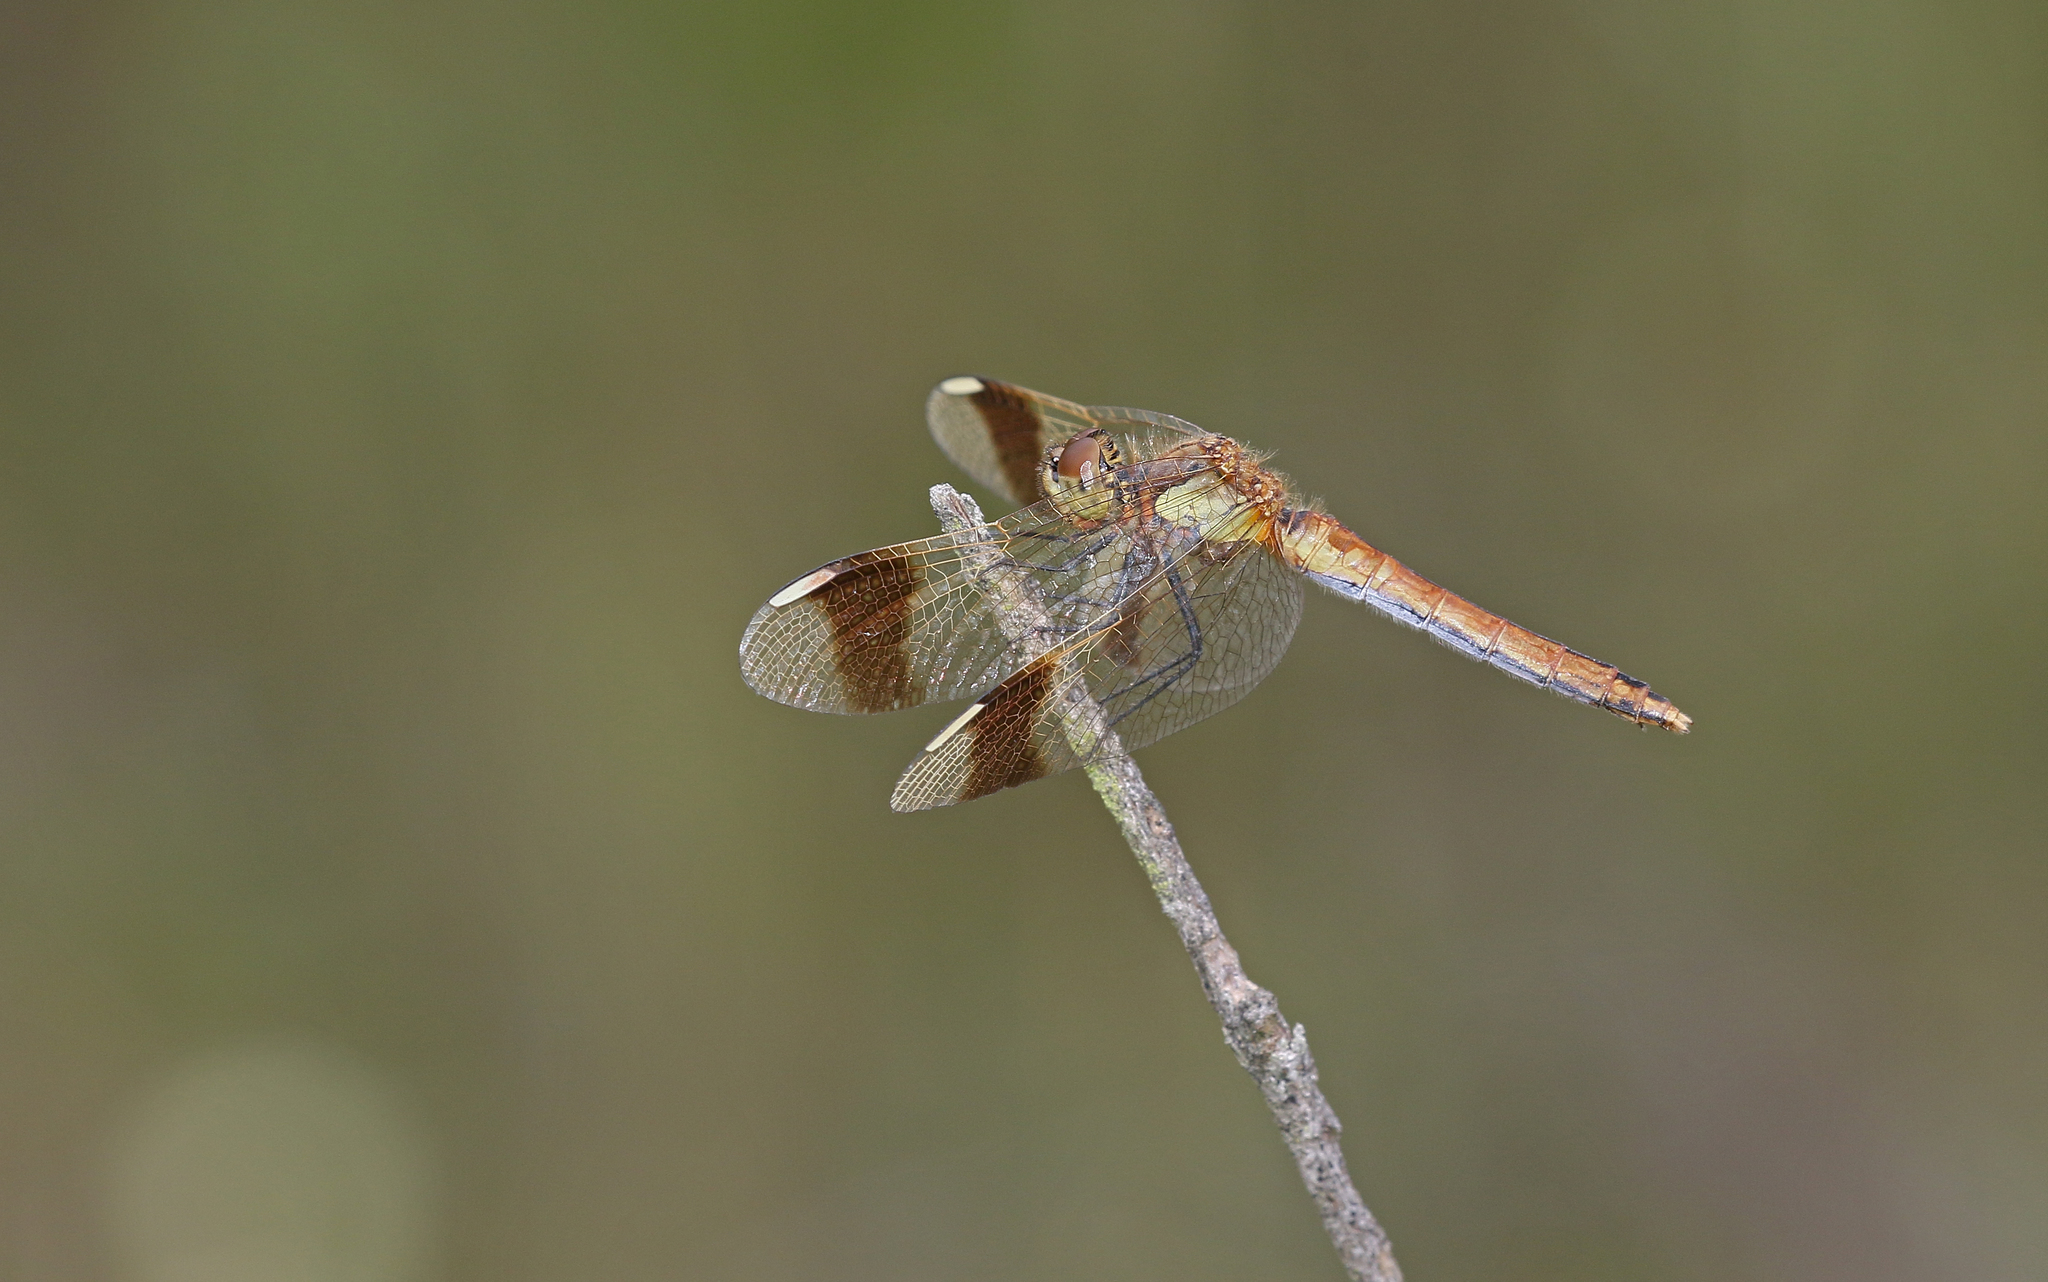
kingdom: Animalia
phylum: Arthropoda
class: Insecta
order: Odonata
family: Libellulidae
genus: Sympetrum
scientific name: Sympetrum pedemontanum
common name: Banded darter
